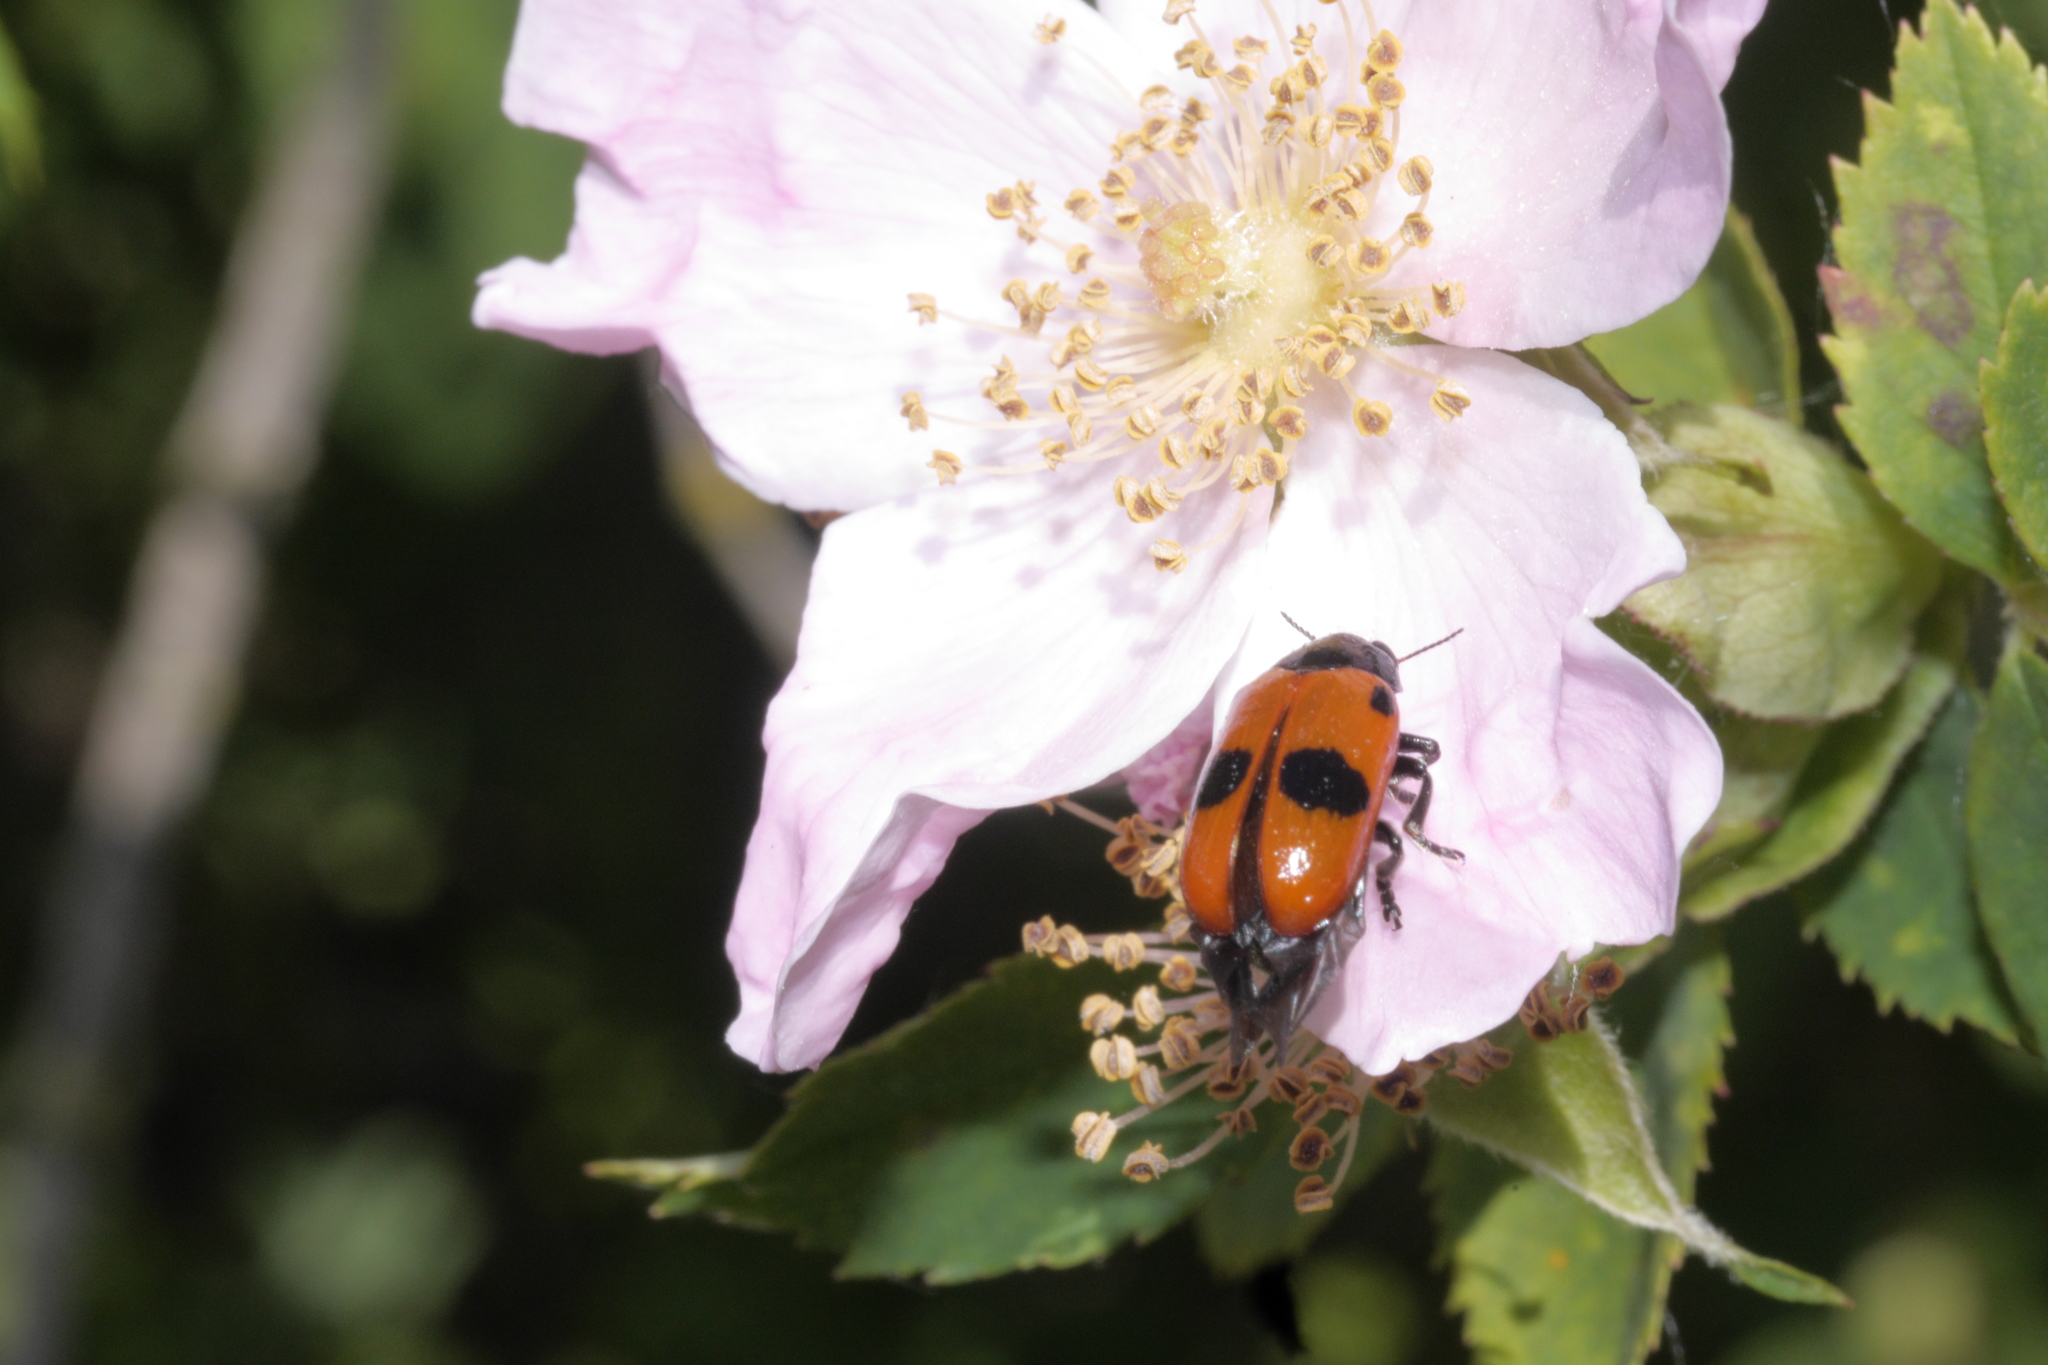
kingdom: Animalia
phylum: Arthropoda
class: Insecta
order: Coleoptera
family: Chrysomelidae
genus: Clytra
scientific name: Clytra laeviuscula
